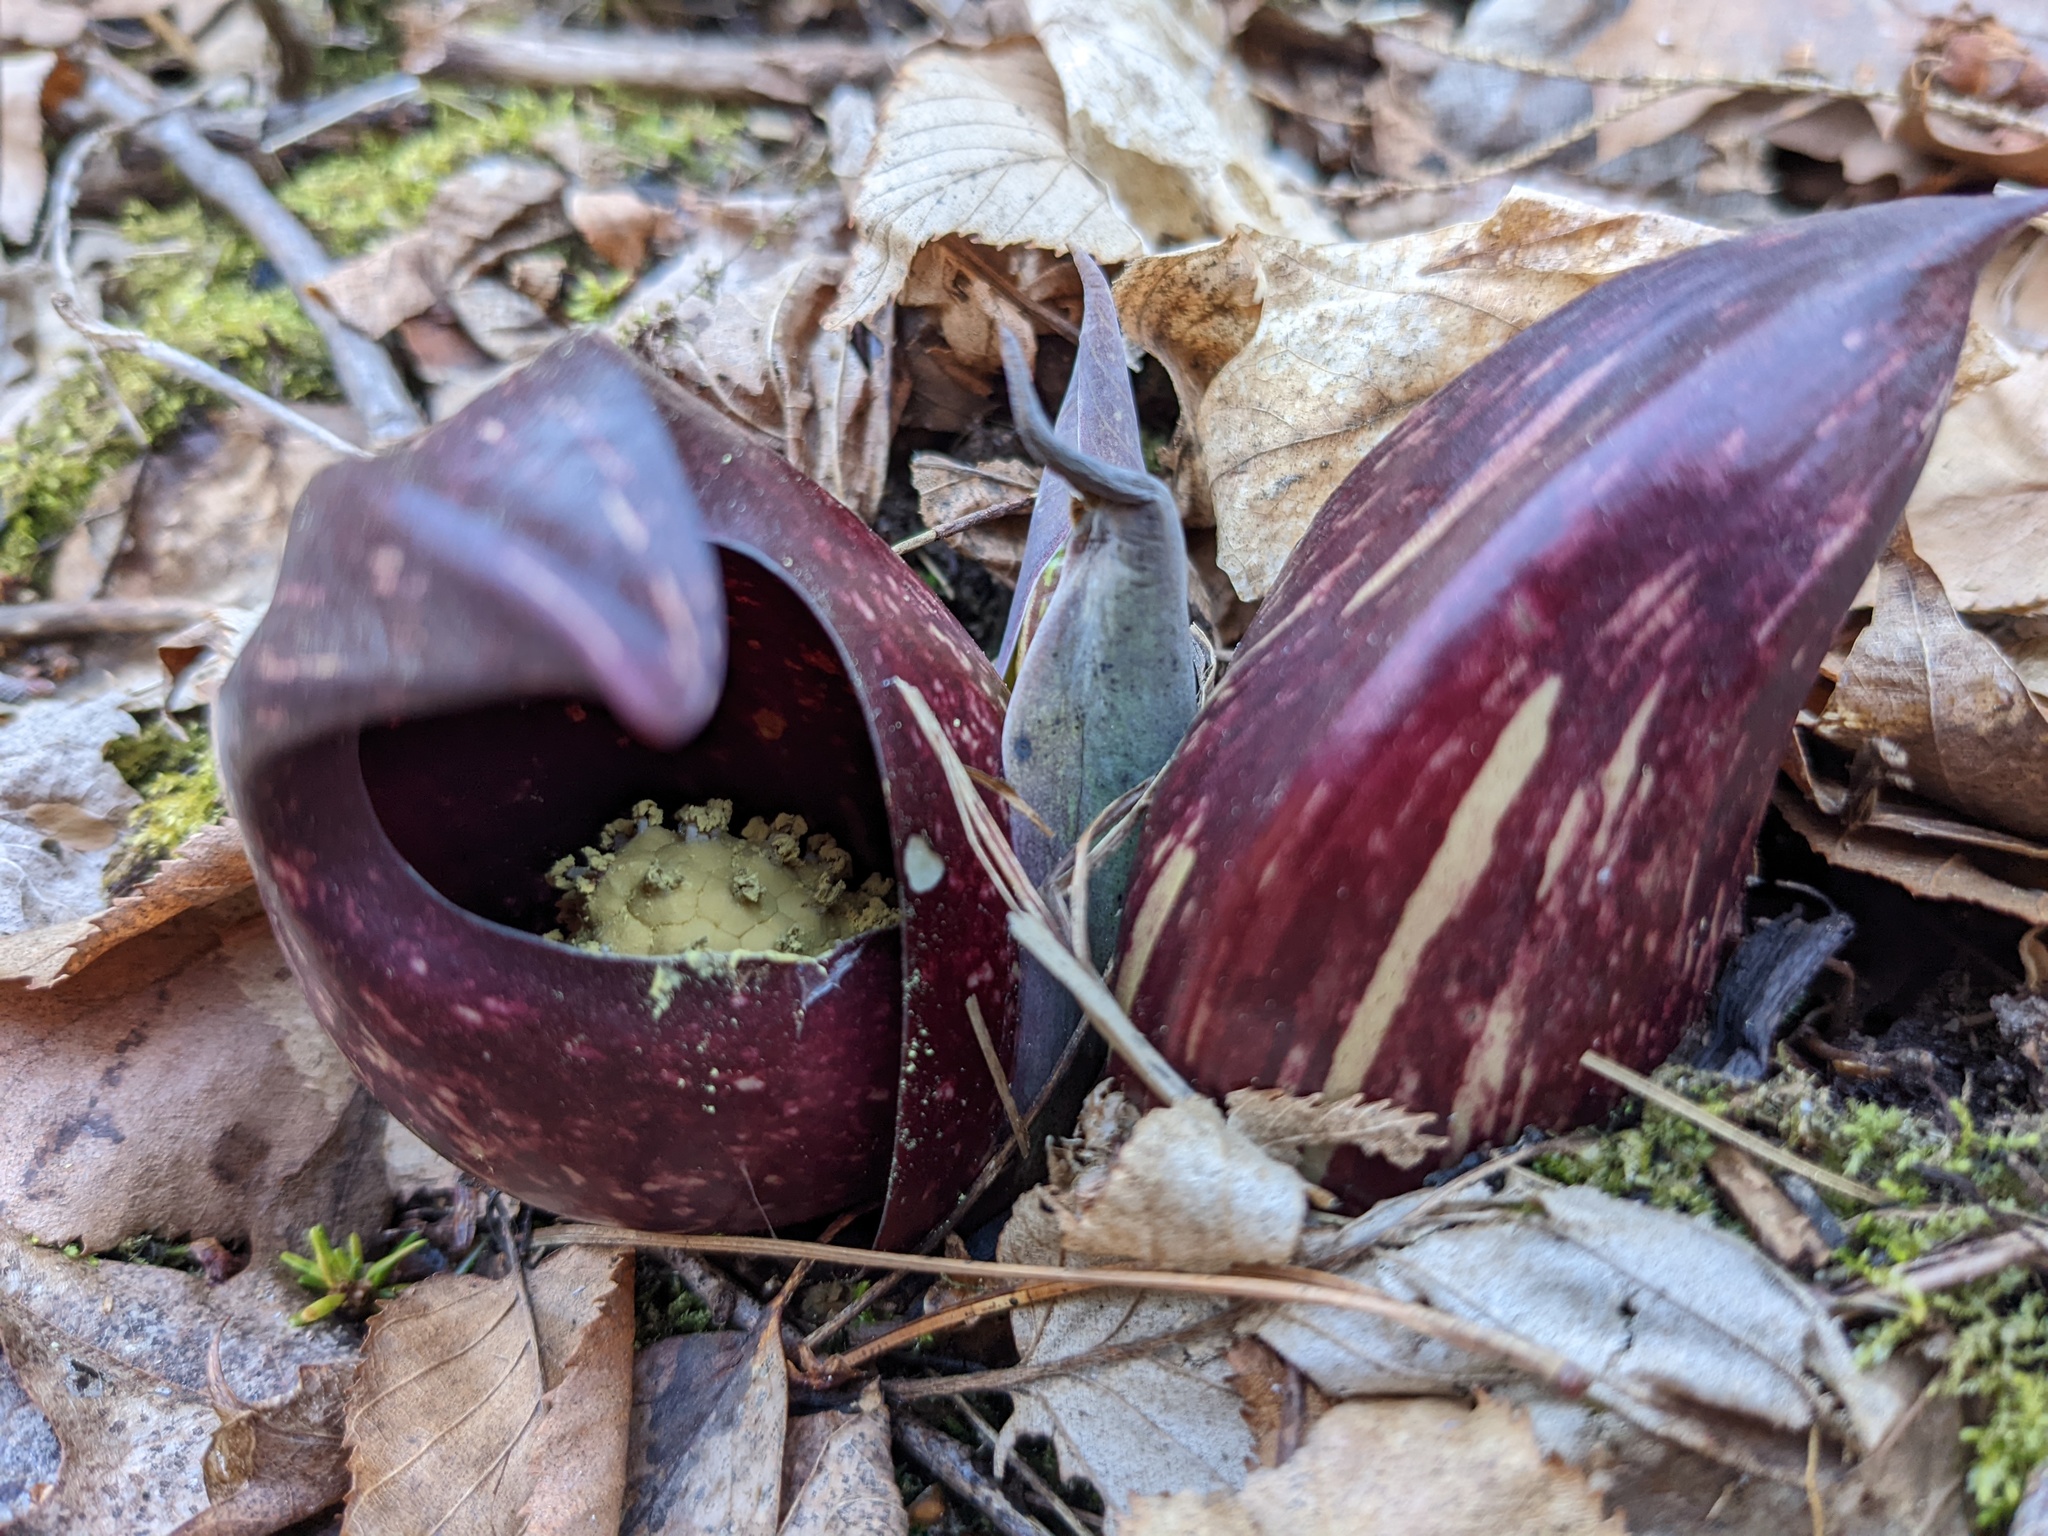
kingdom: Plantae
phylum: Tracheophyta
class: Liliopsida
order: Alismatales
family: Araceae
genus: Symplocarpus
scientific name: Symplocarpus foetidus
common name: Eastern skunk cabbage
